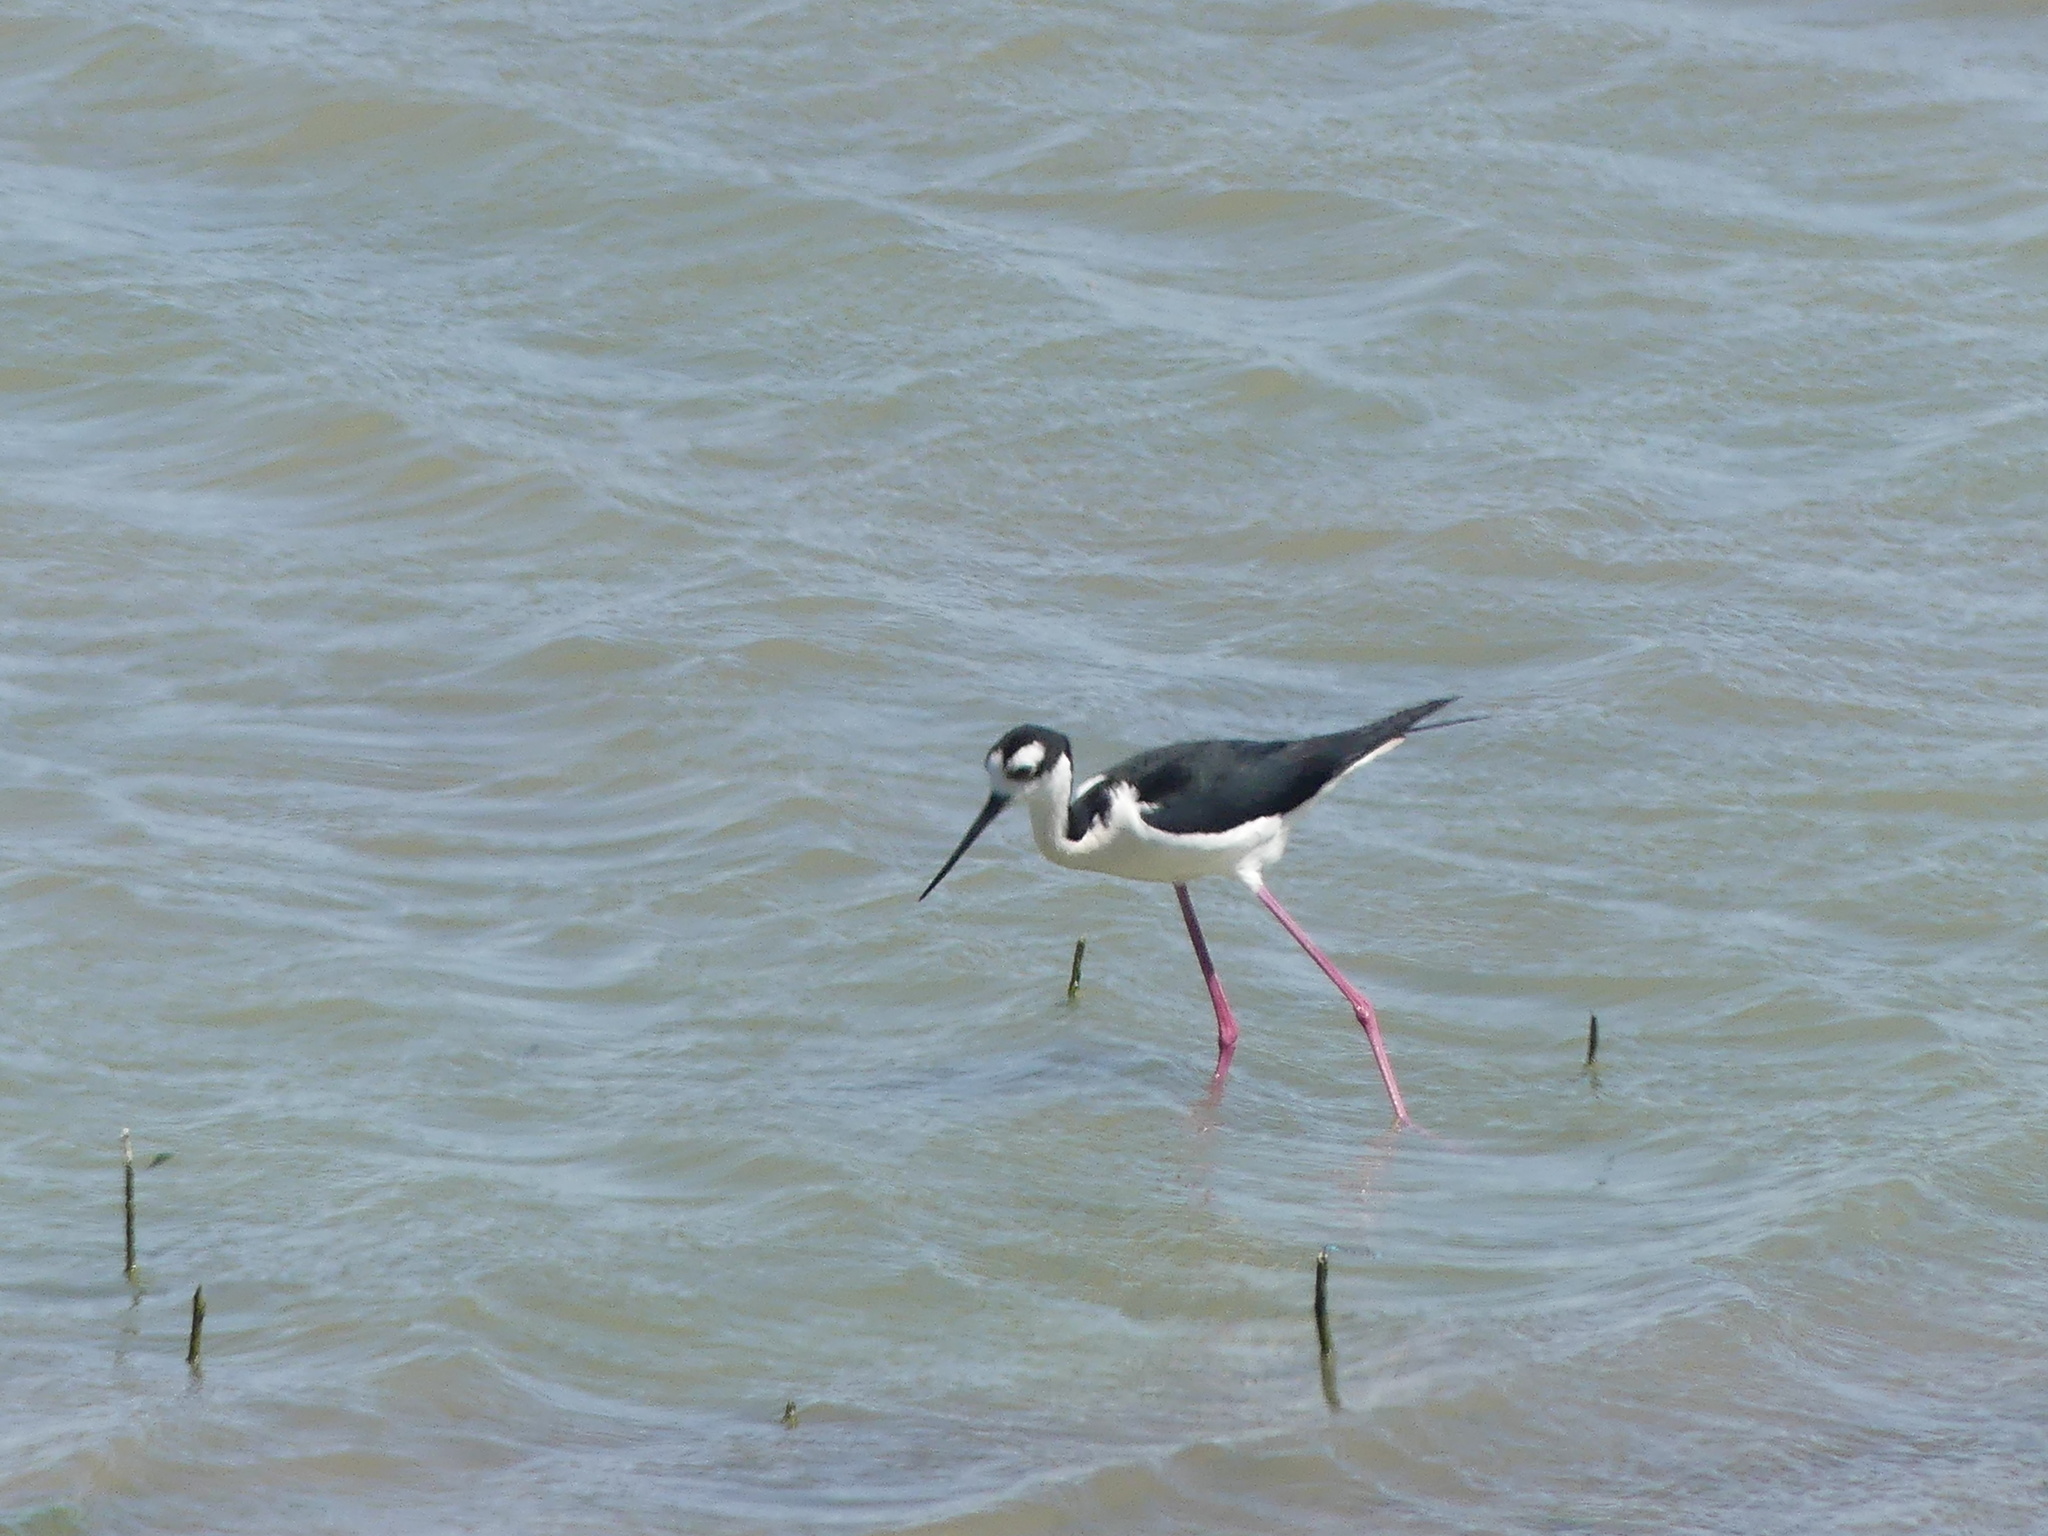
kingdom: Animalia
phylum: Chordata
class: Aves
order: Charadriiformes
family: Recurvirostridae
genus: Himantopus
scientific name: Himantopus mexicanus
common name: Black-necked stilt
